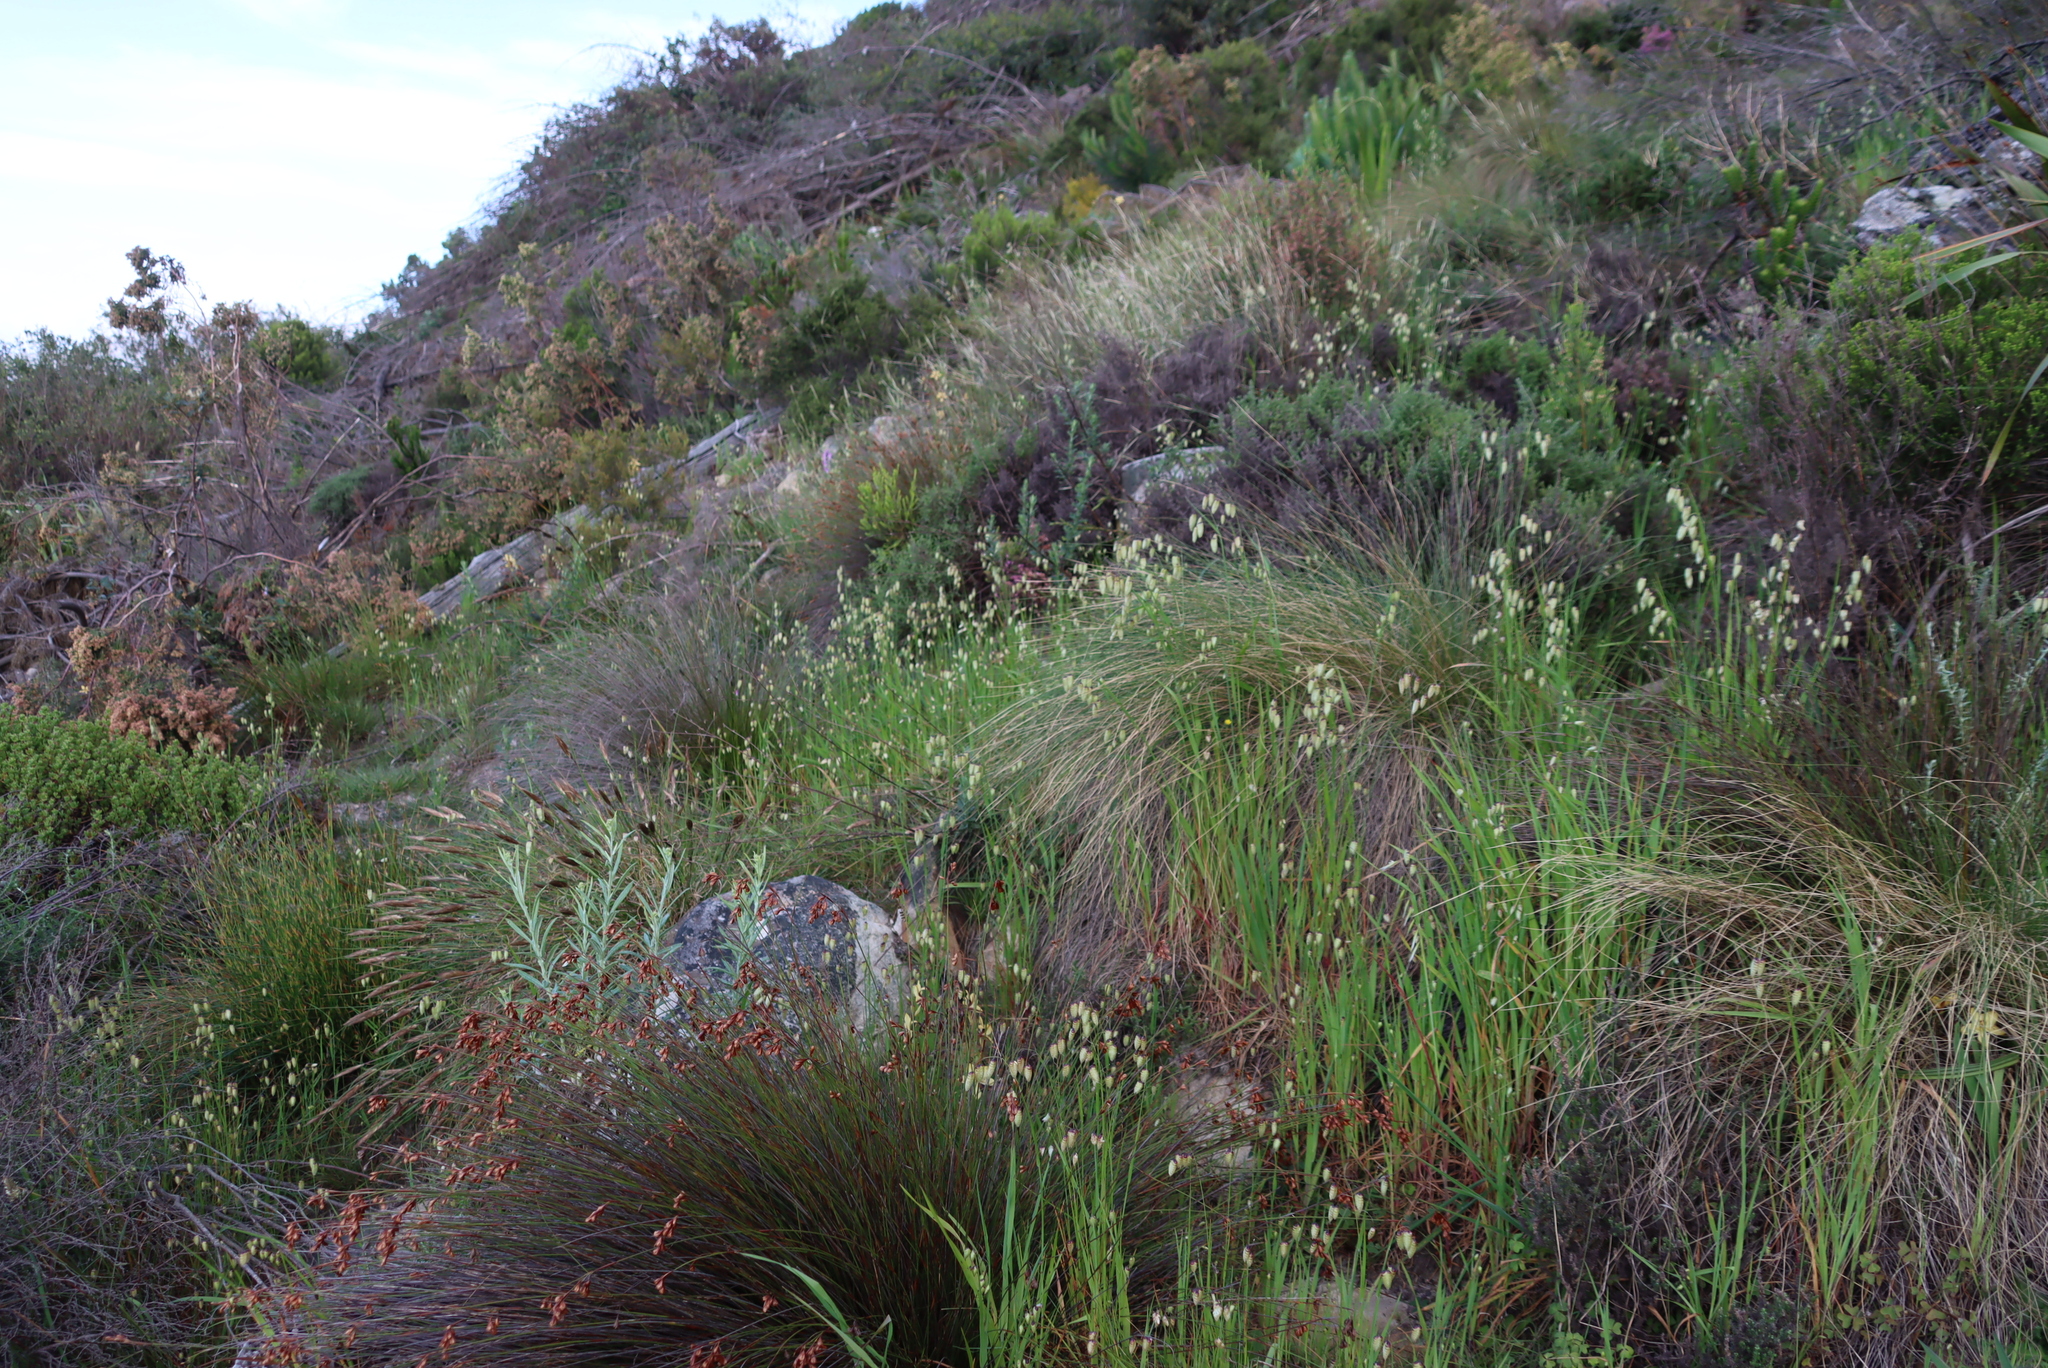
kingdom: Plantae
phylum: Tracheophyta
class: Liliopsida
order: Poales
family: Poaceae
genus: Briza
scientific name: Briza maxima
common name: Big quakinggrass
